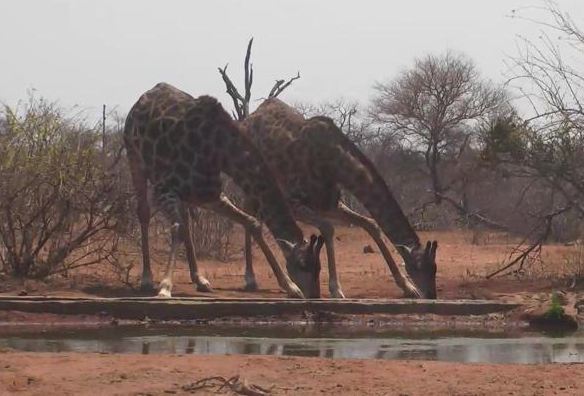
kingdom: Animalia
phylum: Chordata
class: Mammalia
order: Artiodactyla
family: Giraffidae
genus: Giraffa
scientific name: Giraffa giraffa
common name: Southern giraffe
